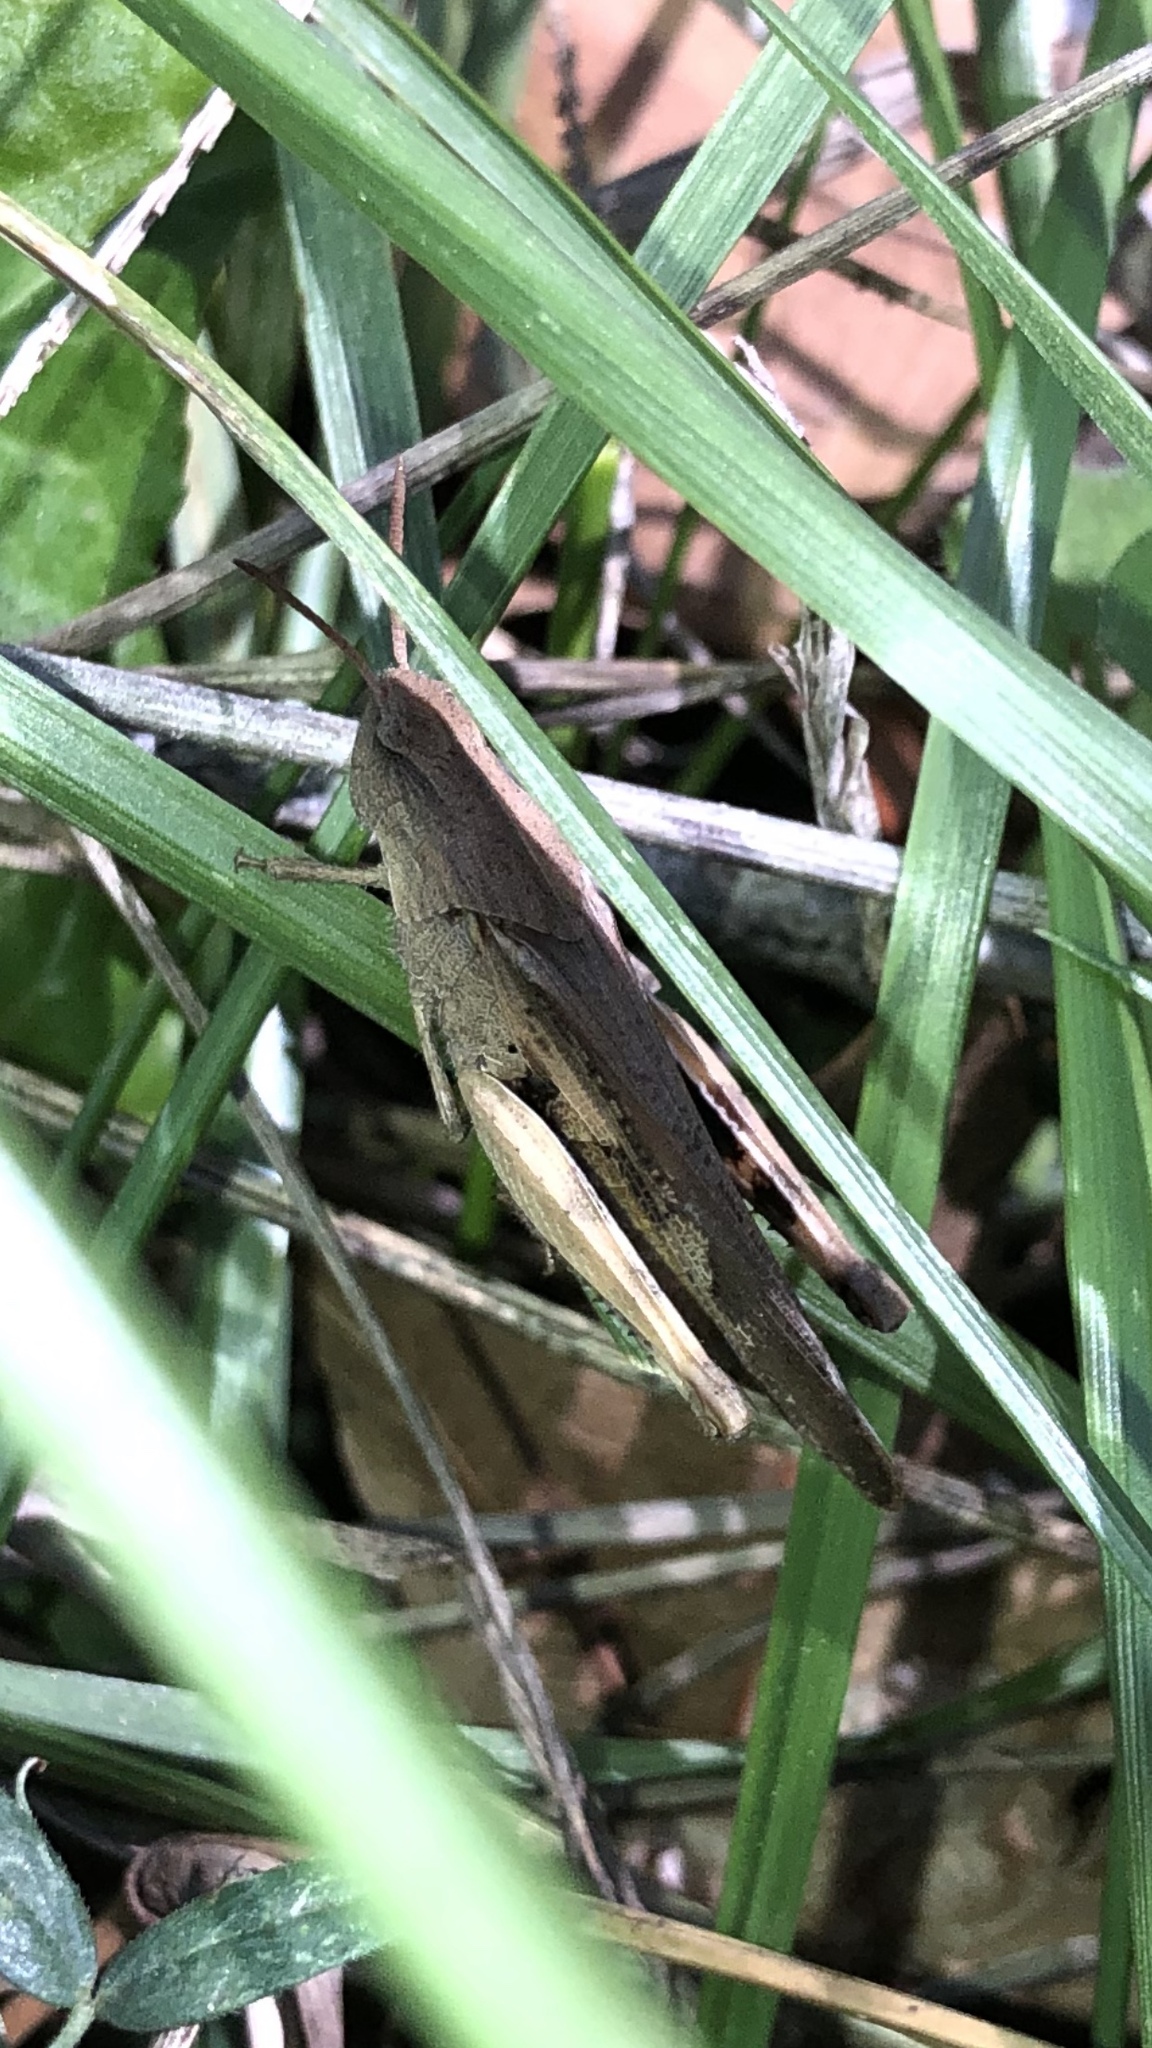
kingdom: Animalia
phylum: Arthropoda
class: Insecta
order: Orthoptera
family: Acrididae
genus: Chortophaga
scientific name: Chortophaga viridifasciata
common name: Green-striped grasshopper
